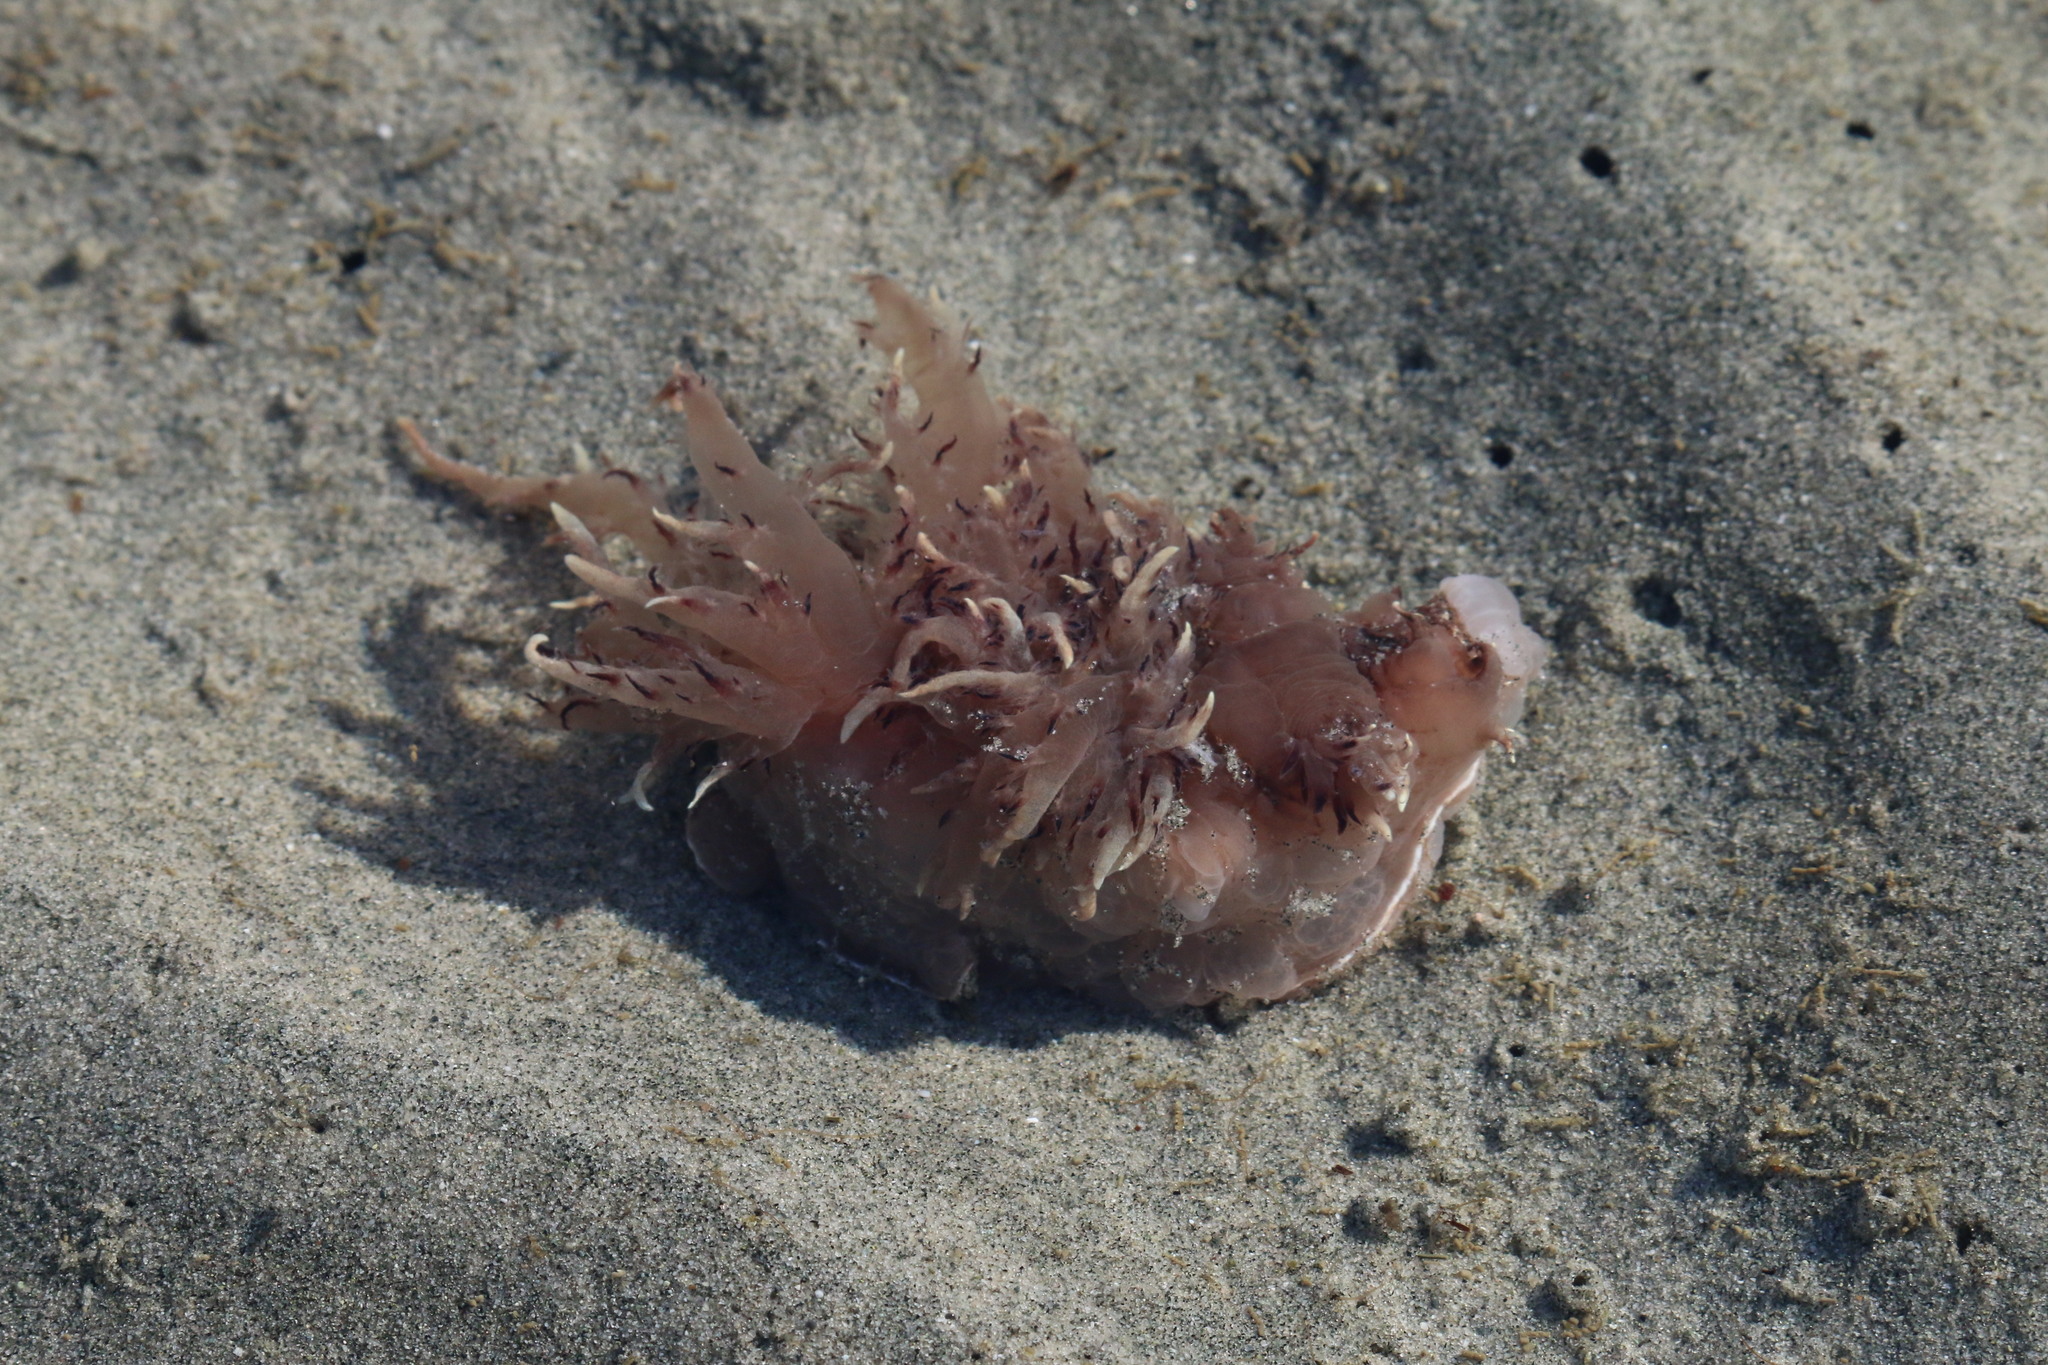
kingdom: Animalia
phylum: Mollusca
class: Gastropoda
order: Nudibranchia
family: Dendronotidae
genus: Dendronotus
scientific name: Dendronotus iris
